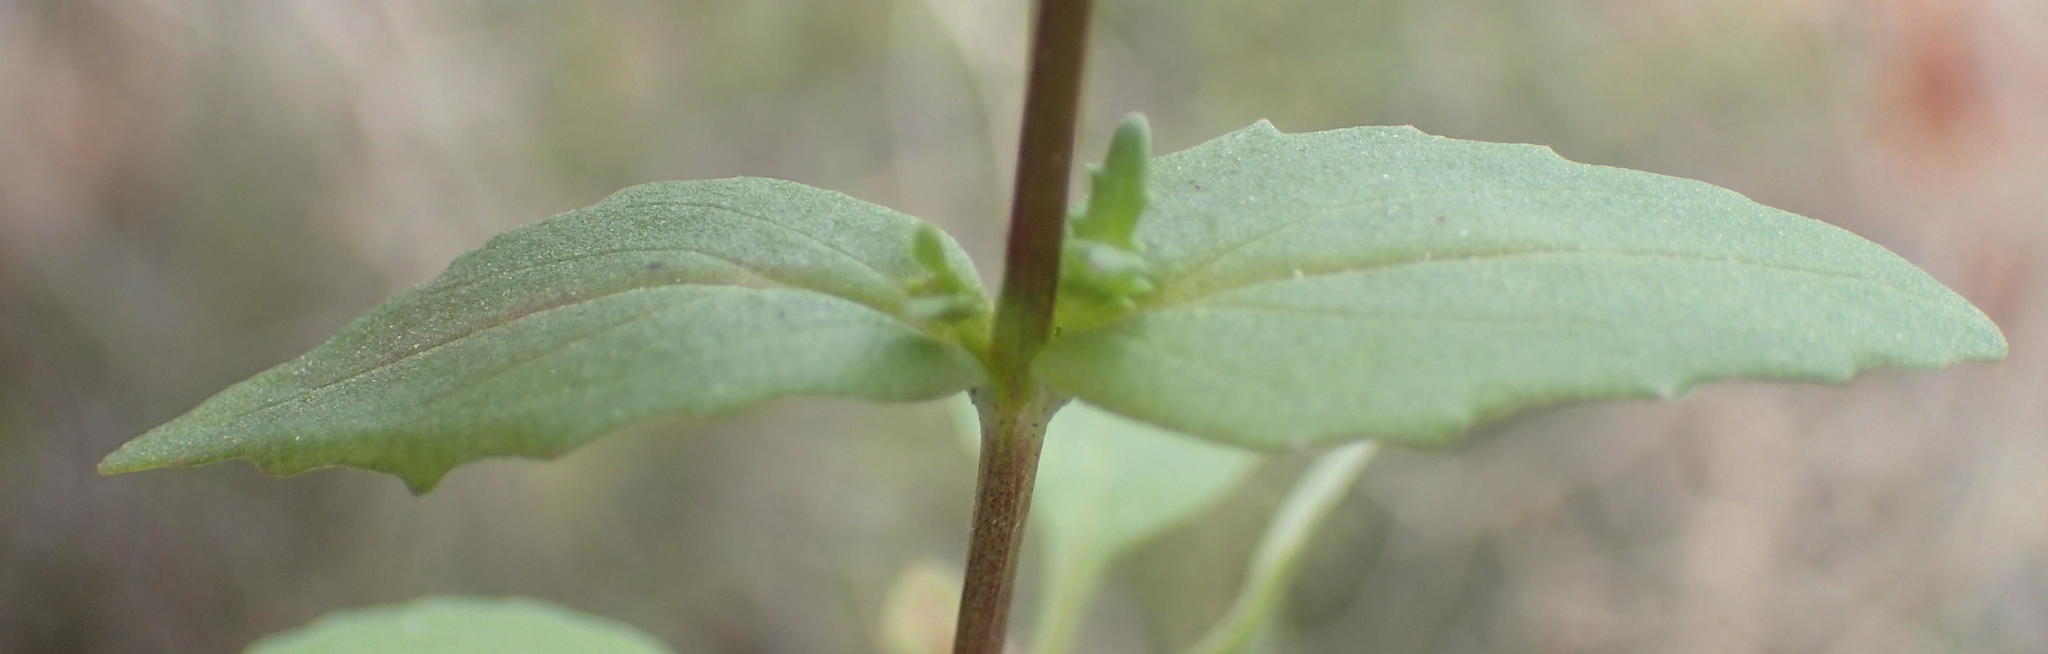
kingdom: Plantae
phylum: Tracheophyta
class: Magnoliopsida
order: Lamiales
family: Scrophulariaceae
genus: Nemesia
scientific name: Nemesia barbata
